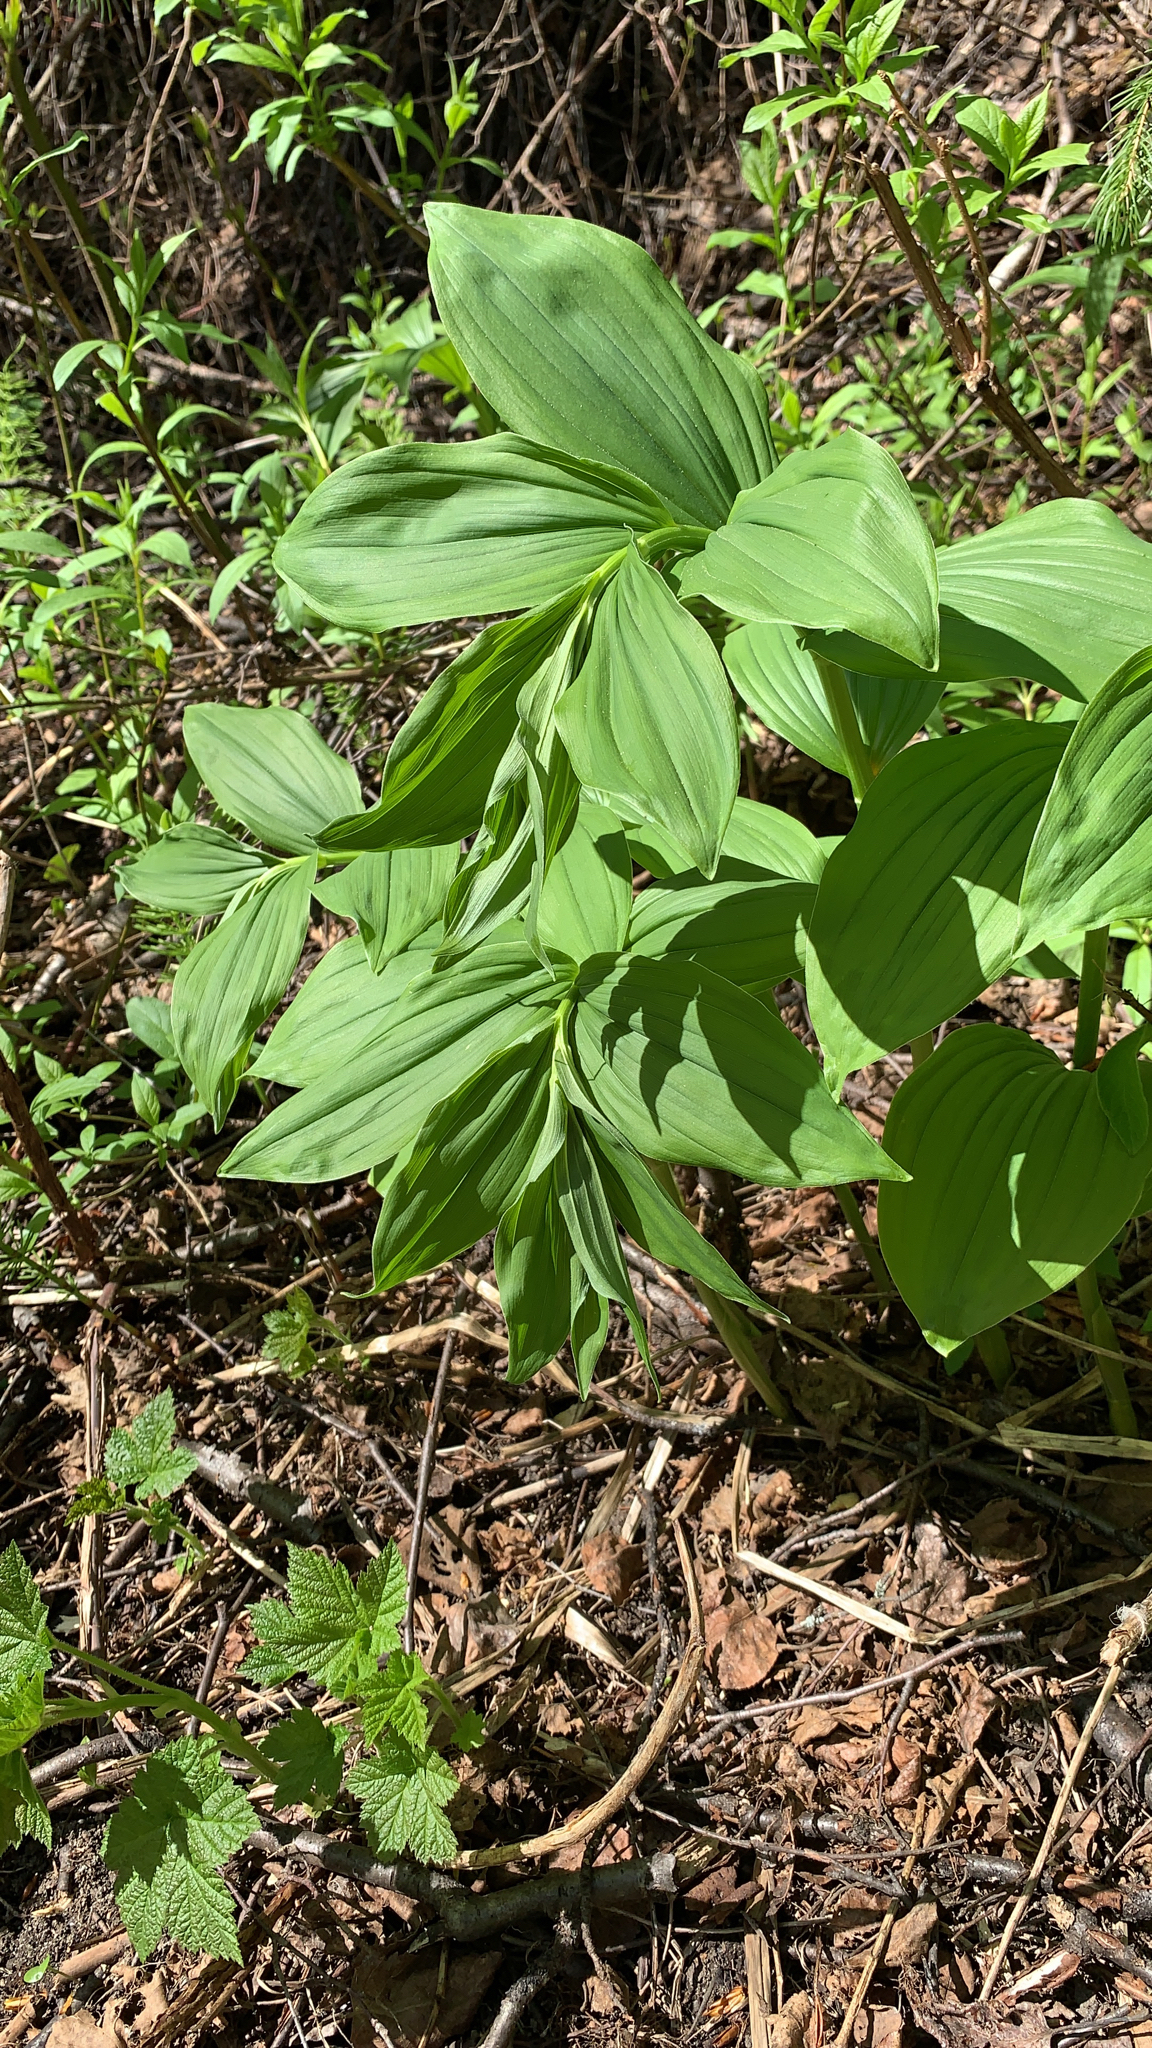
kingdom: Plantae
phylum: Tracheophyta
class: Liliopsida
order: Asparagales
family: Asparagaceae
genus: Maianthemum
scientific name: Maianthemum racemosum
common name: False spikenard
